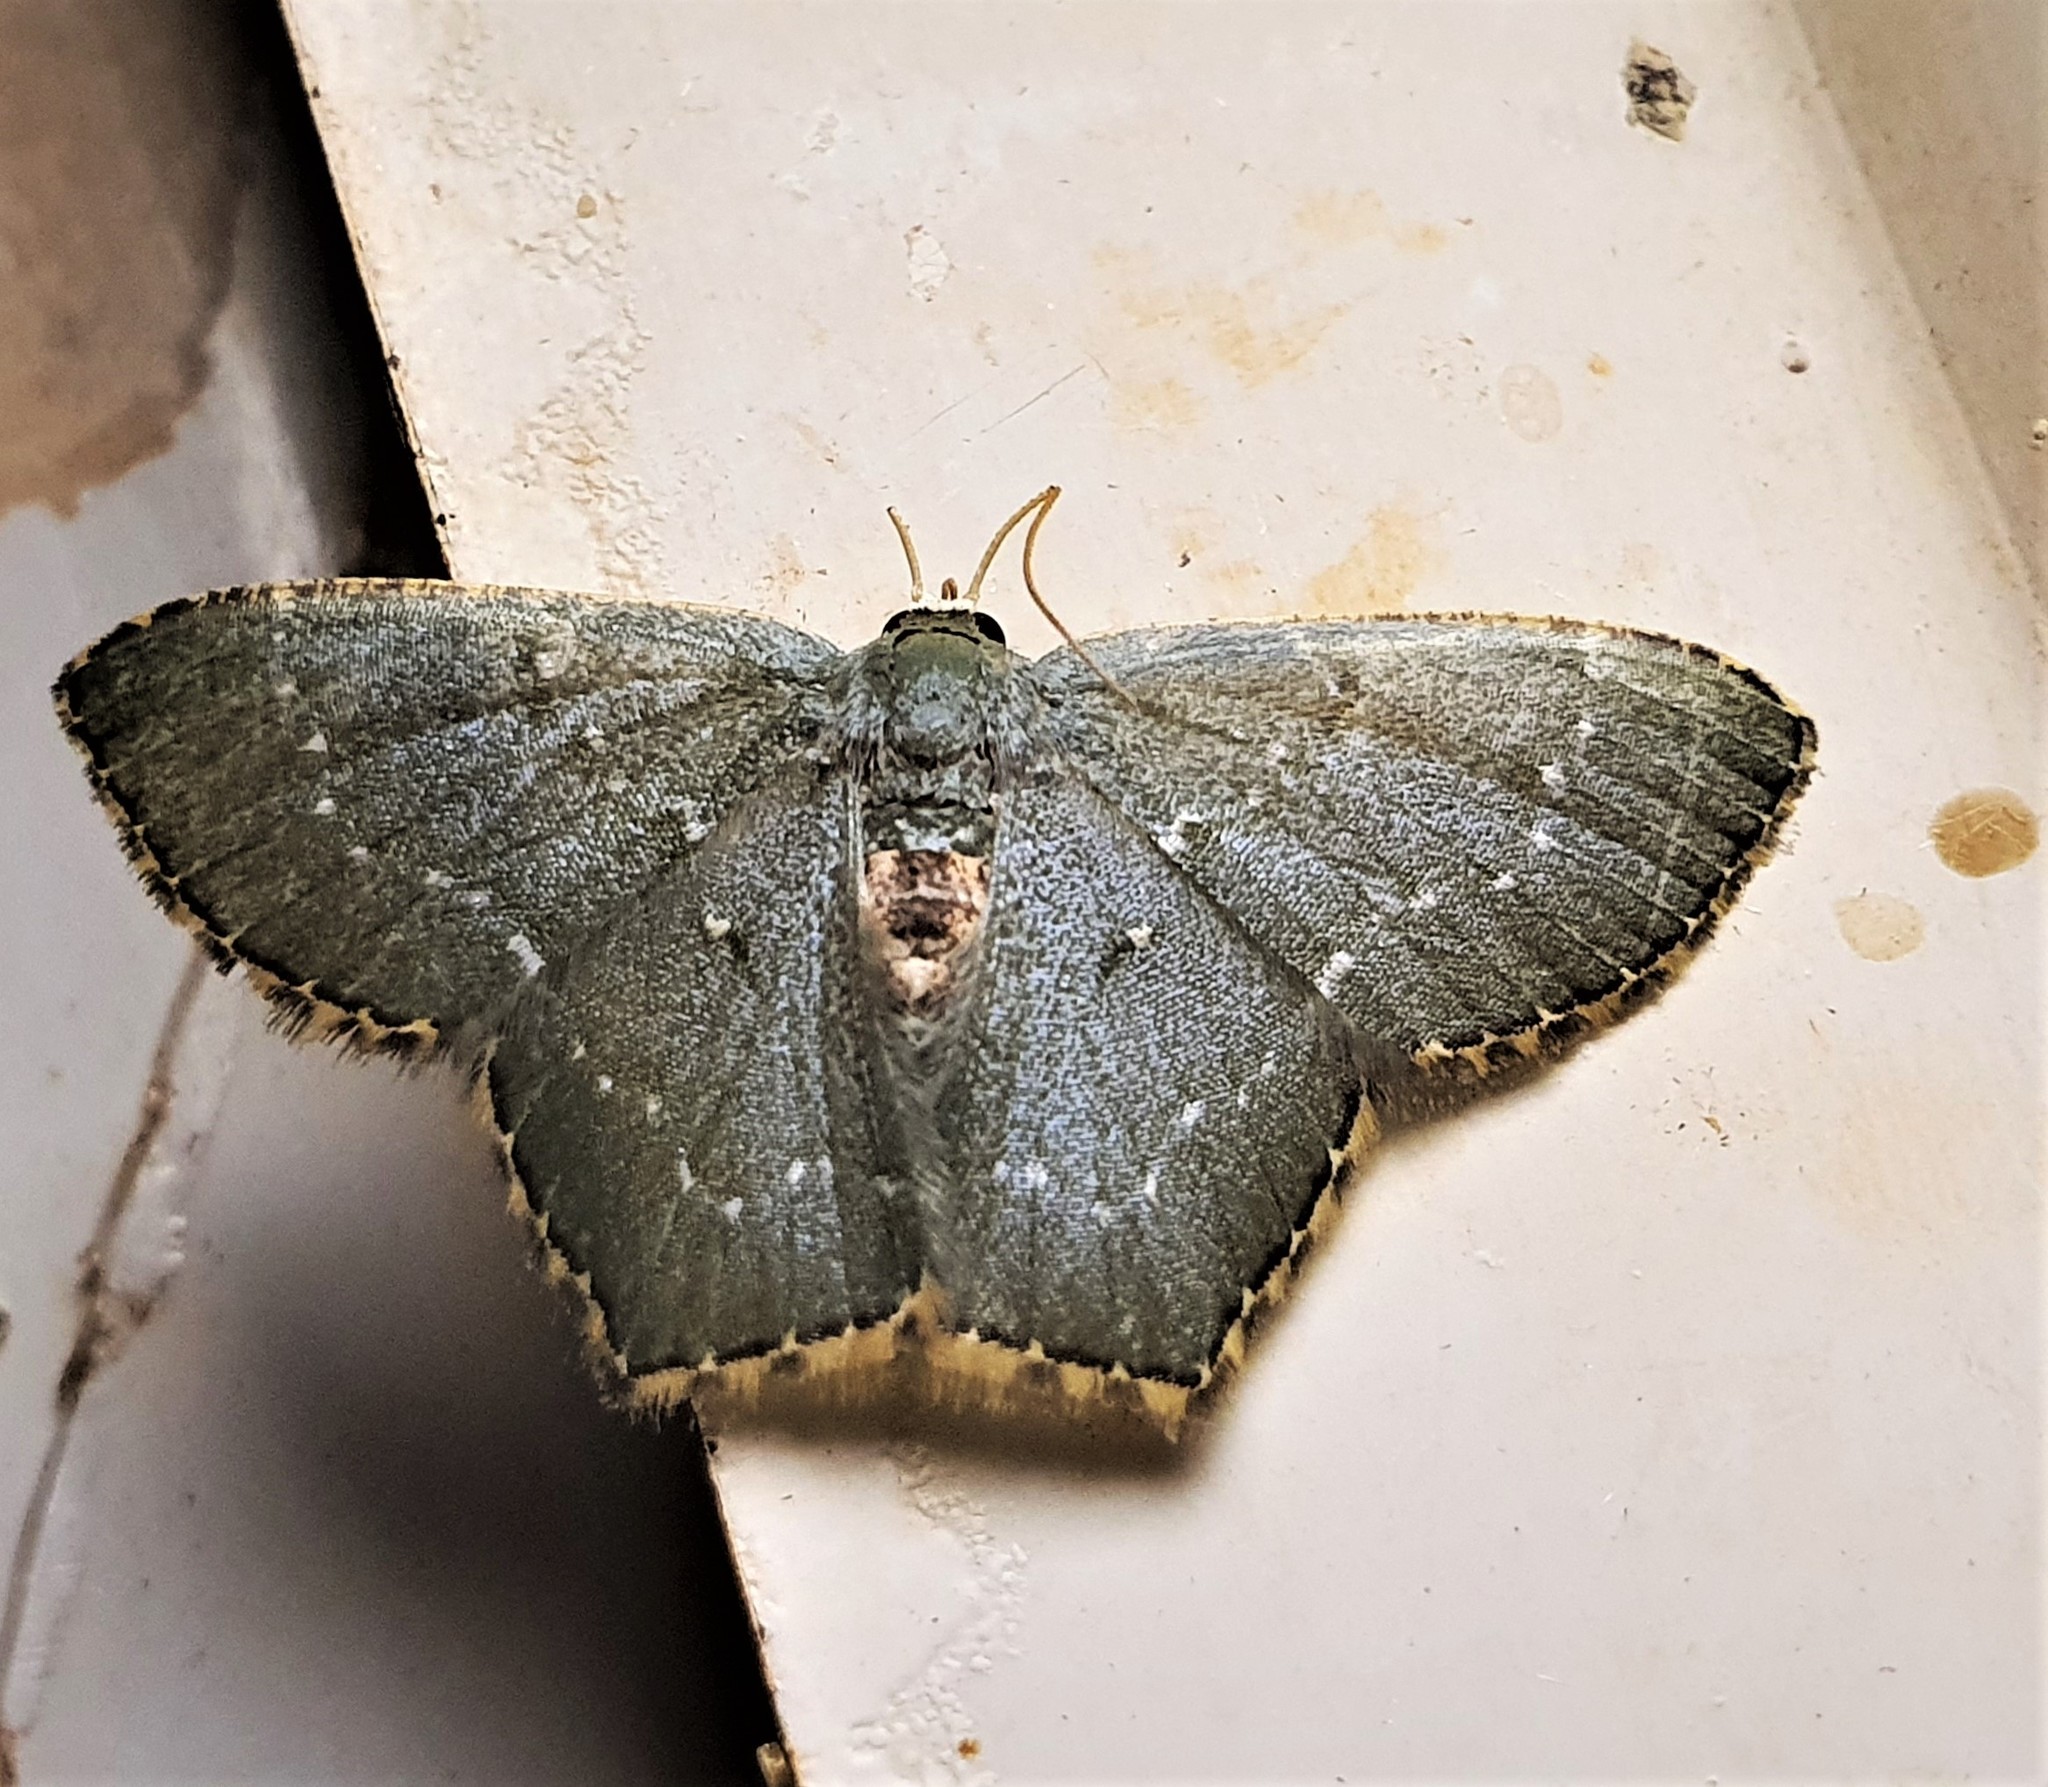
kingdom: Animalia
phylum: Arthropoda
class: Insecta
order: Lepidoptera
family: Geometridae
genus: Chloropteryx
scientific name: Chloropteryx punctilinea
